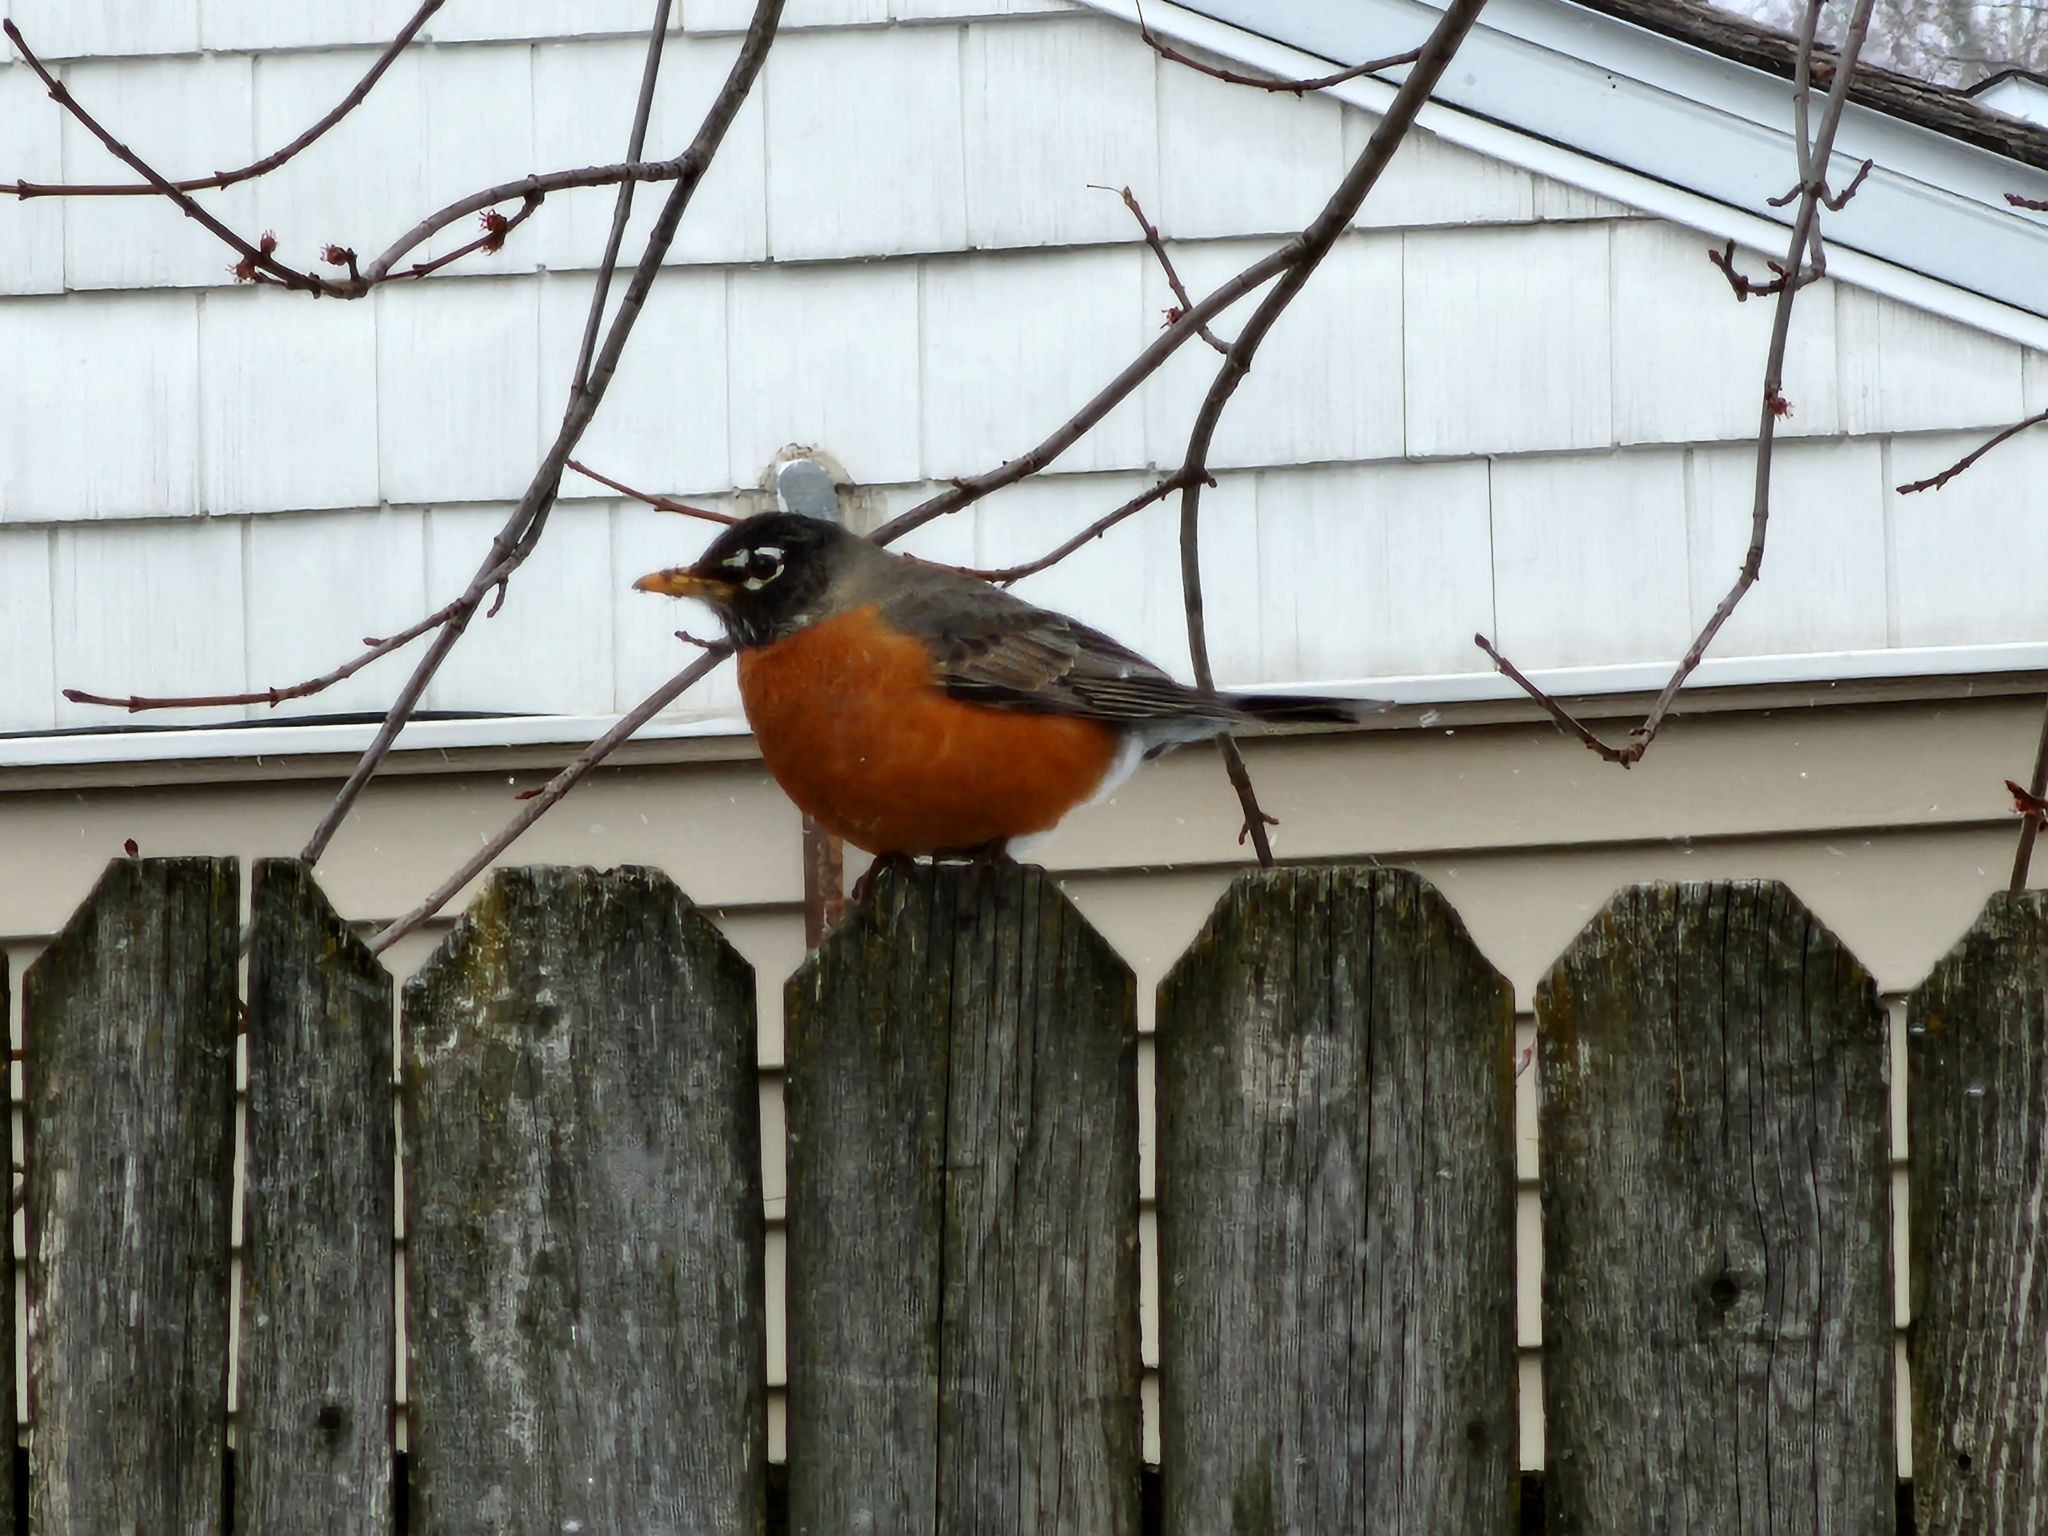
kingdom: Animalia
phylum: Chordata
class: Aves
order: Passeriformes
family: Turdidae
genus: Turdus
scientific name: Turdus migratorius
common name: American robin
